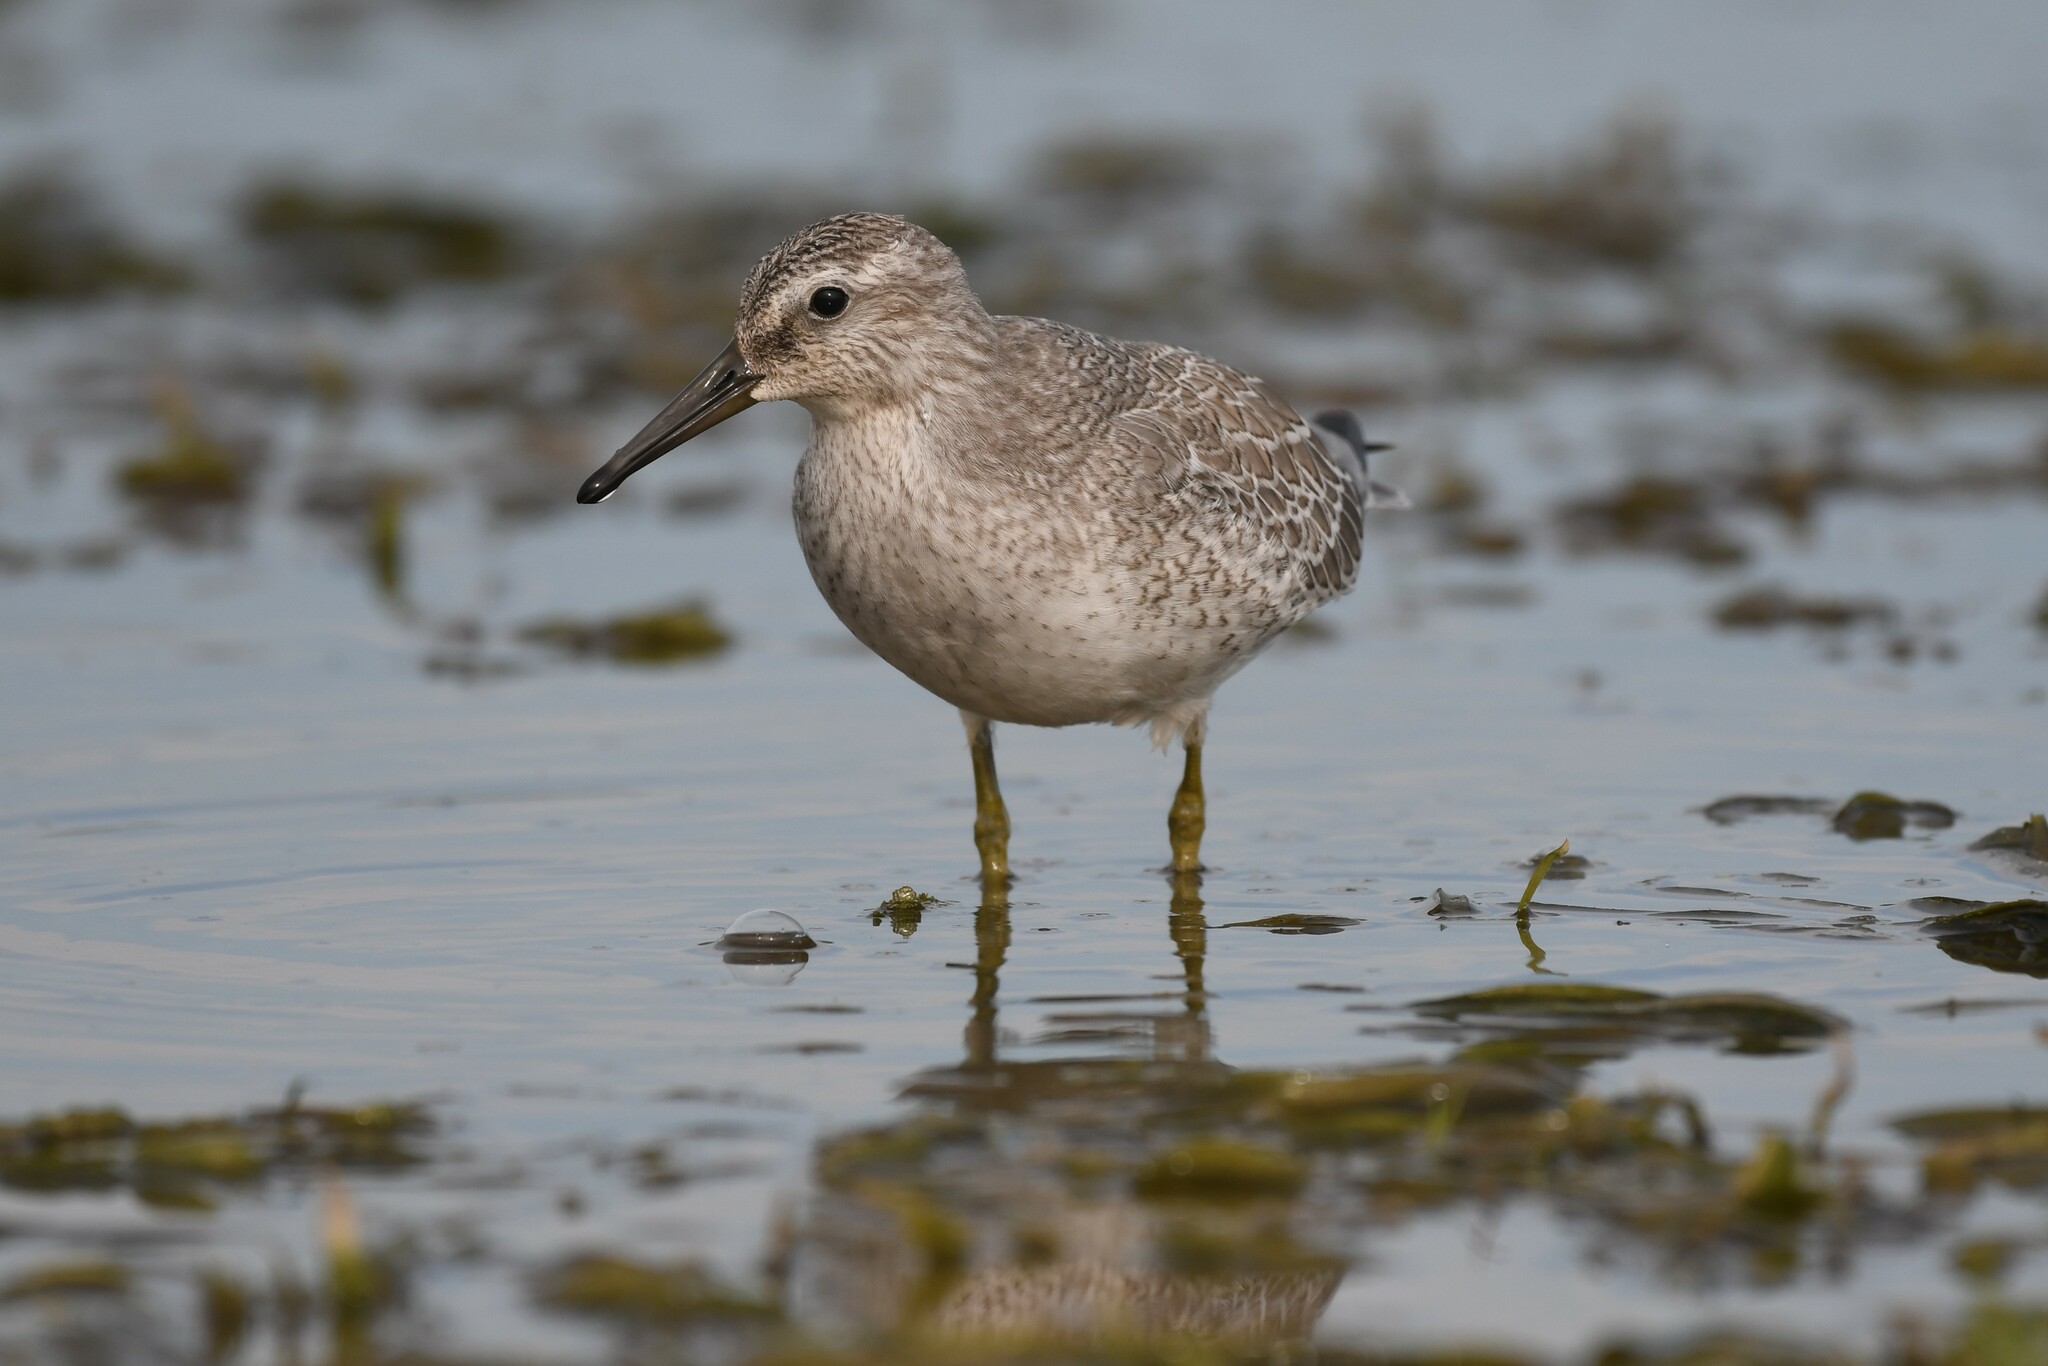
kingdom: Animalia
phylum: Chordata
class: Aves
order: Charadriiformes
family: Scolopacidae
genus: Calidris
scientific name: Calidris canutus
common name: Red knot
